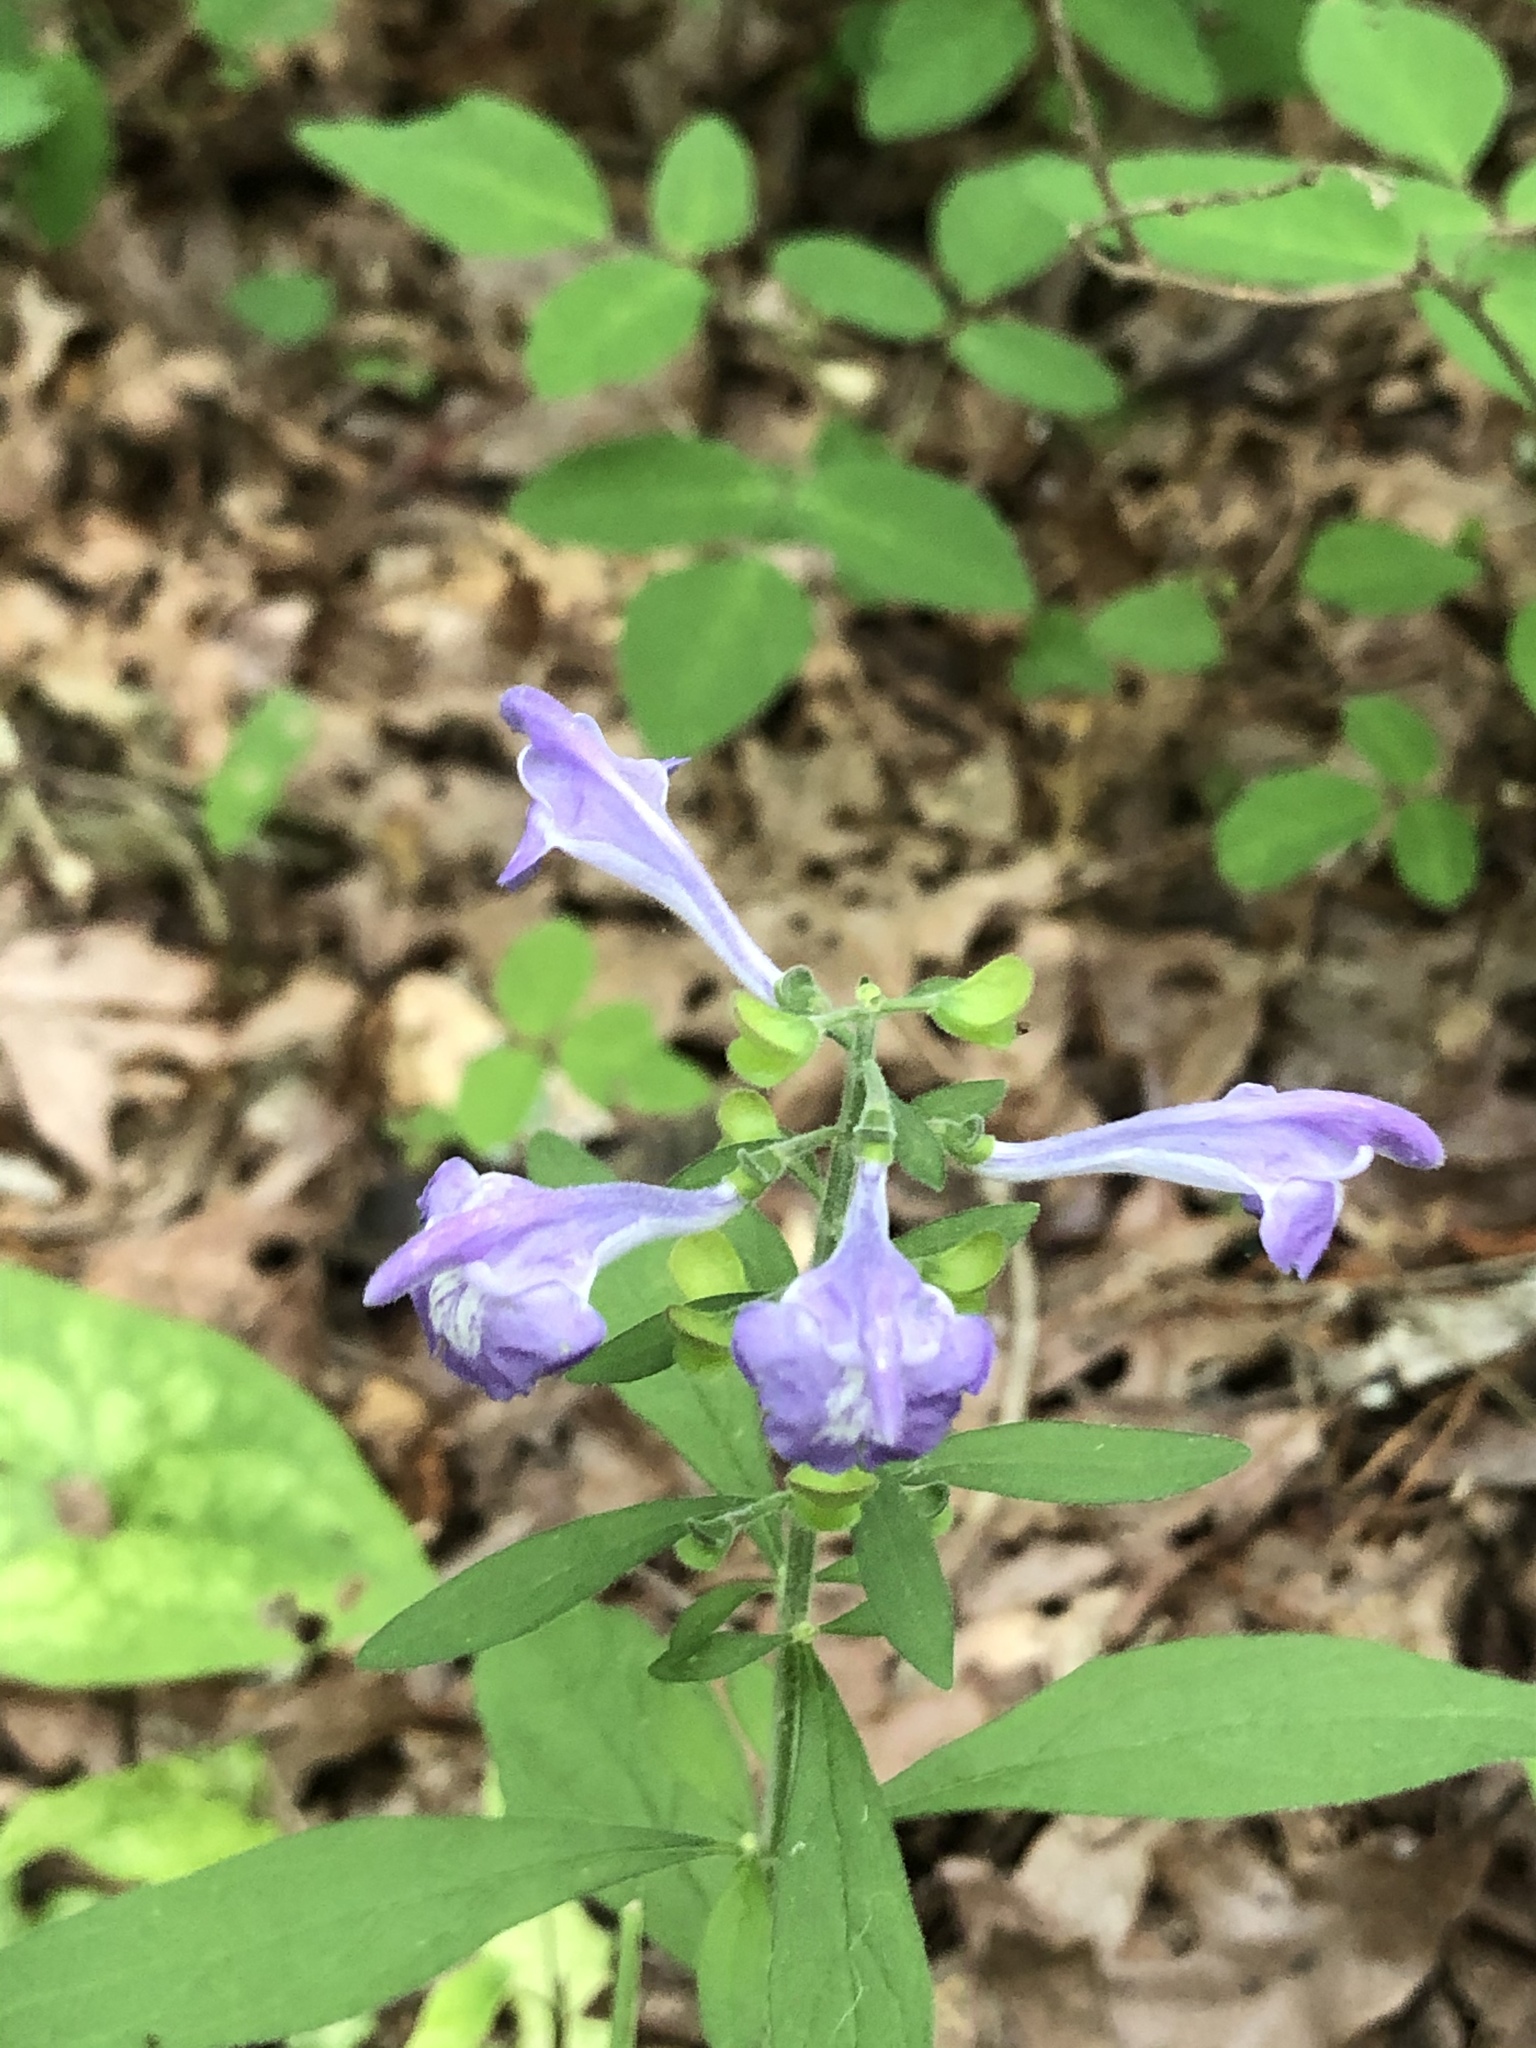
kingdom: Plantae
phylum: Tracheophyta
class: Magnoliopsida
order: Lamiales
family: Lamiaceae
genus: Scutellaria
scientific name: Scutellaria integrifolia
